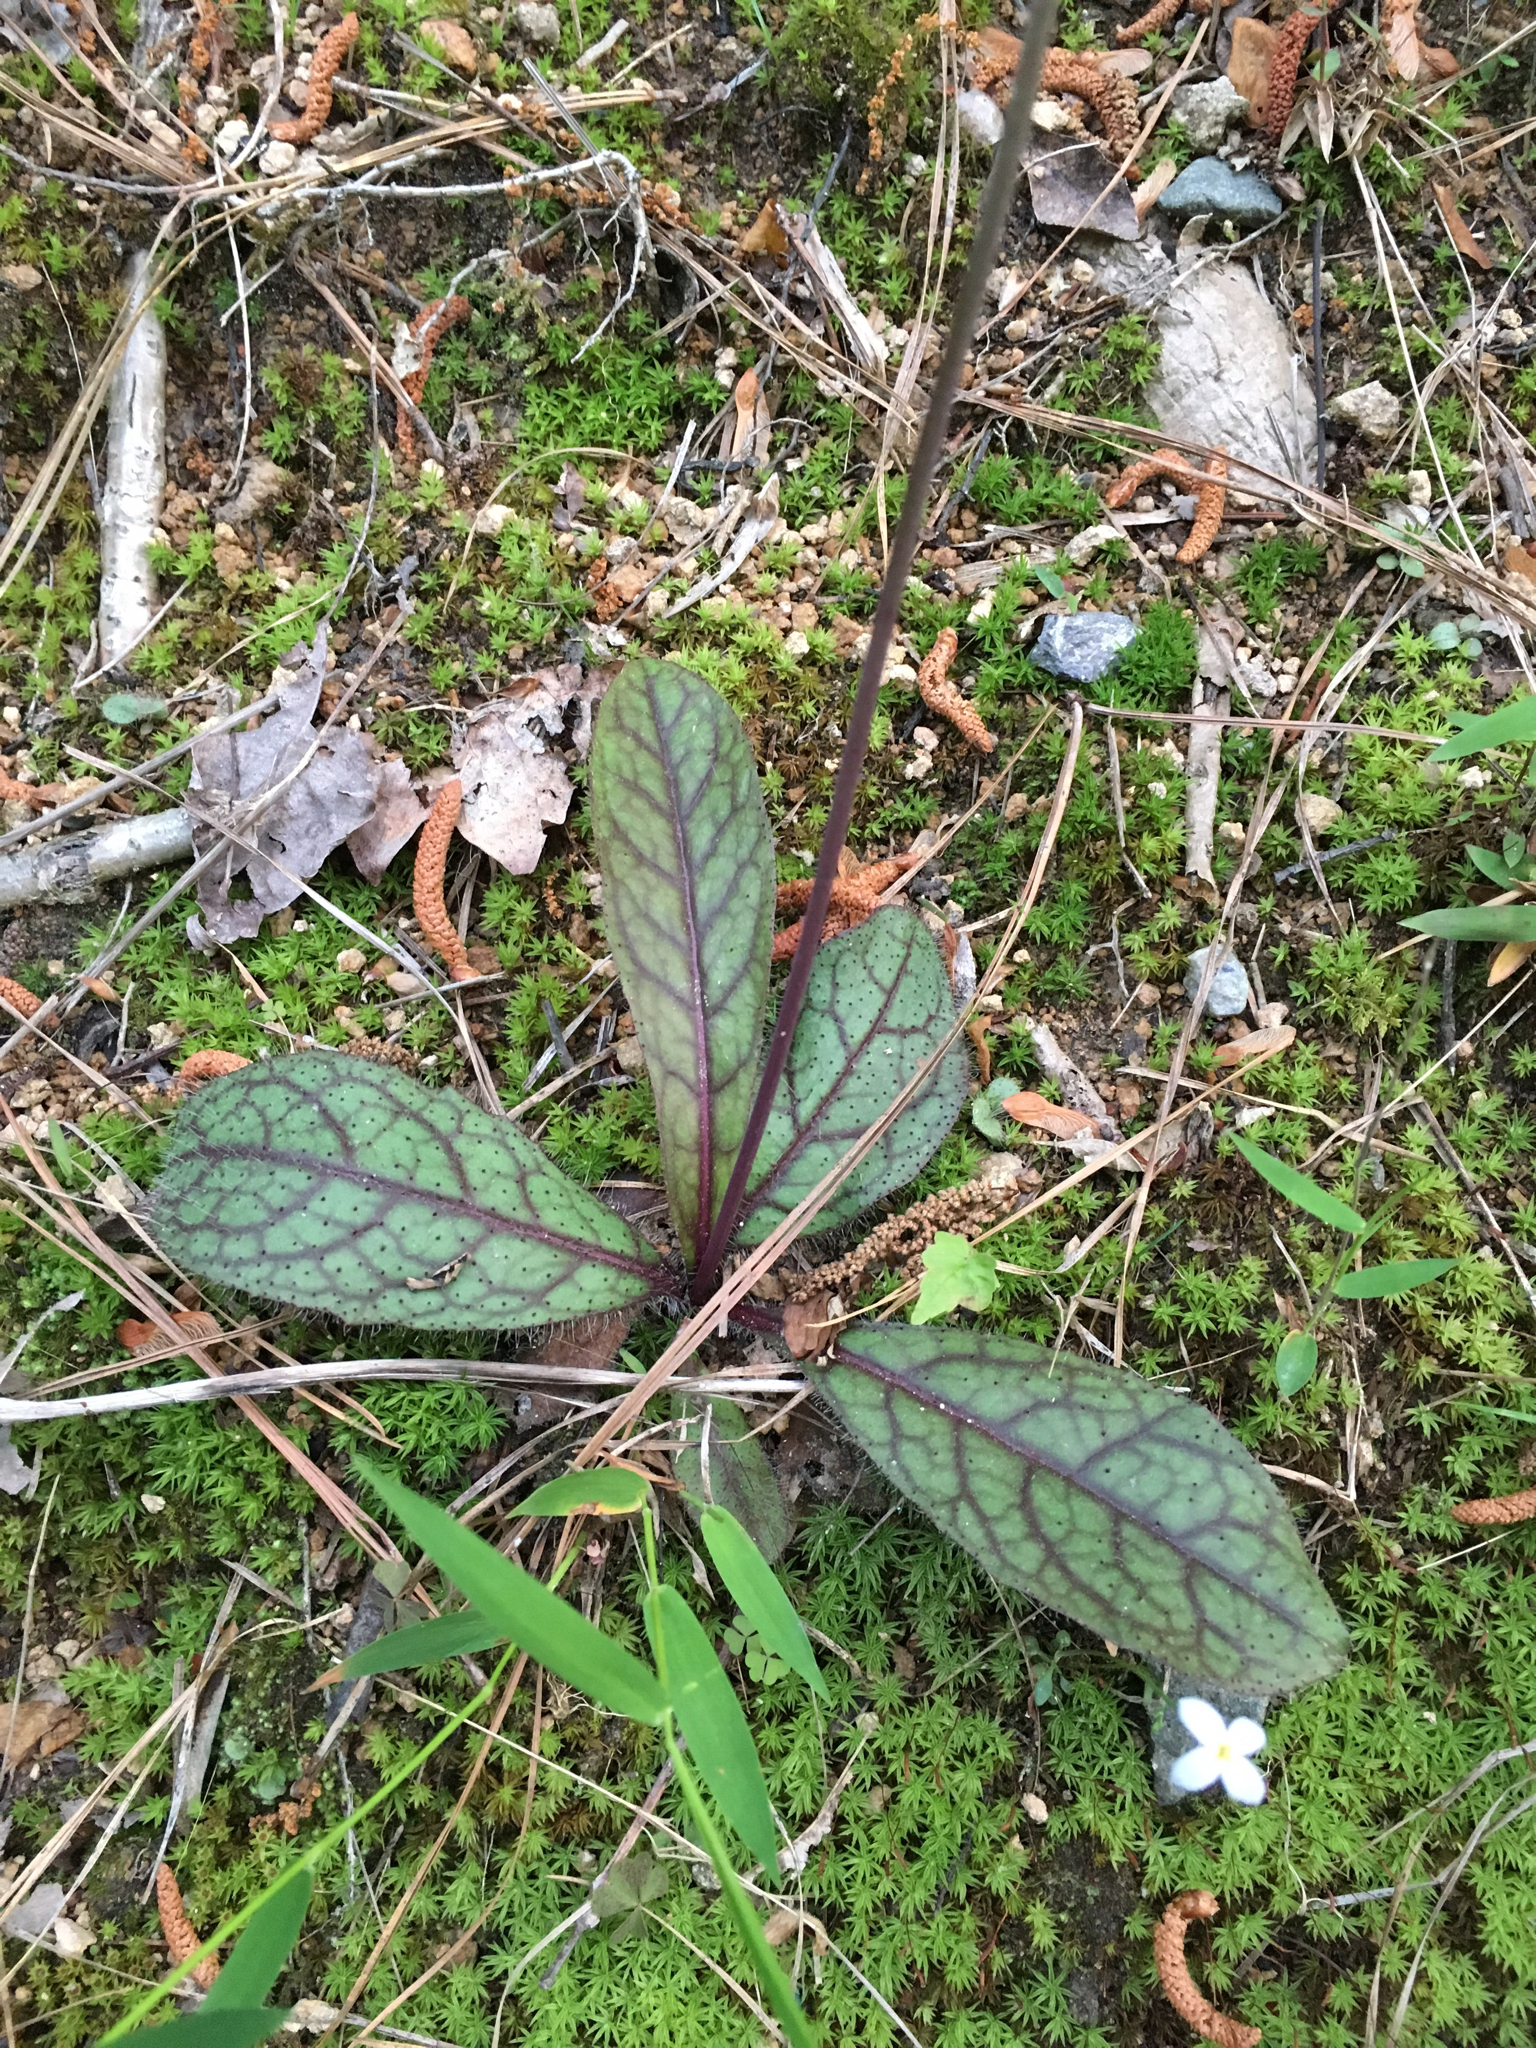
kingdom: Plantae
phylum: Tracheophyta
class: Magnoliopsida
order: Asterales
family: Asteraceae
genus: Hieracium
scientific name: Hieracium venosum
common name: Rattlesnake hawkweed
